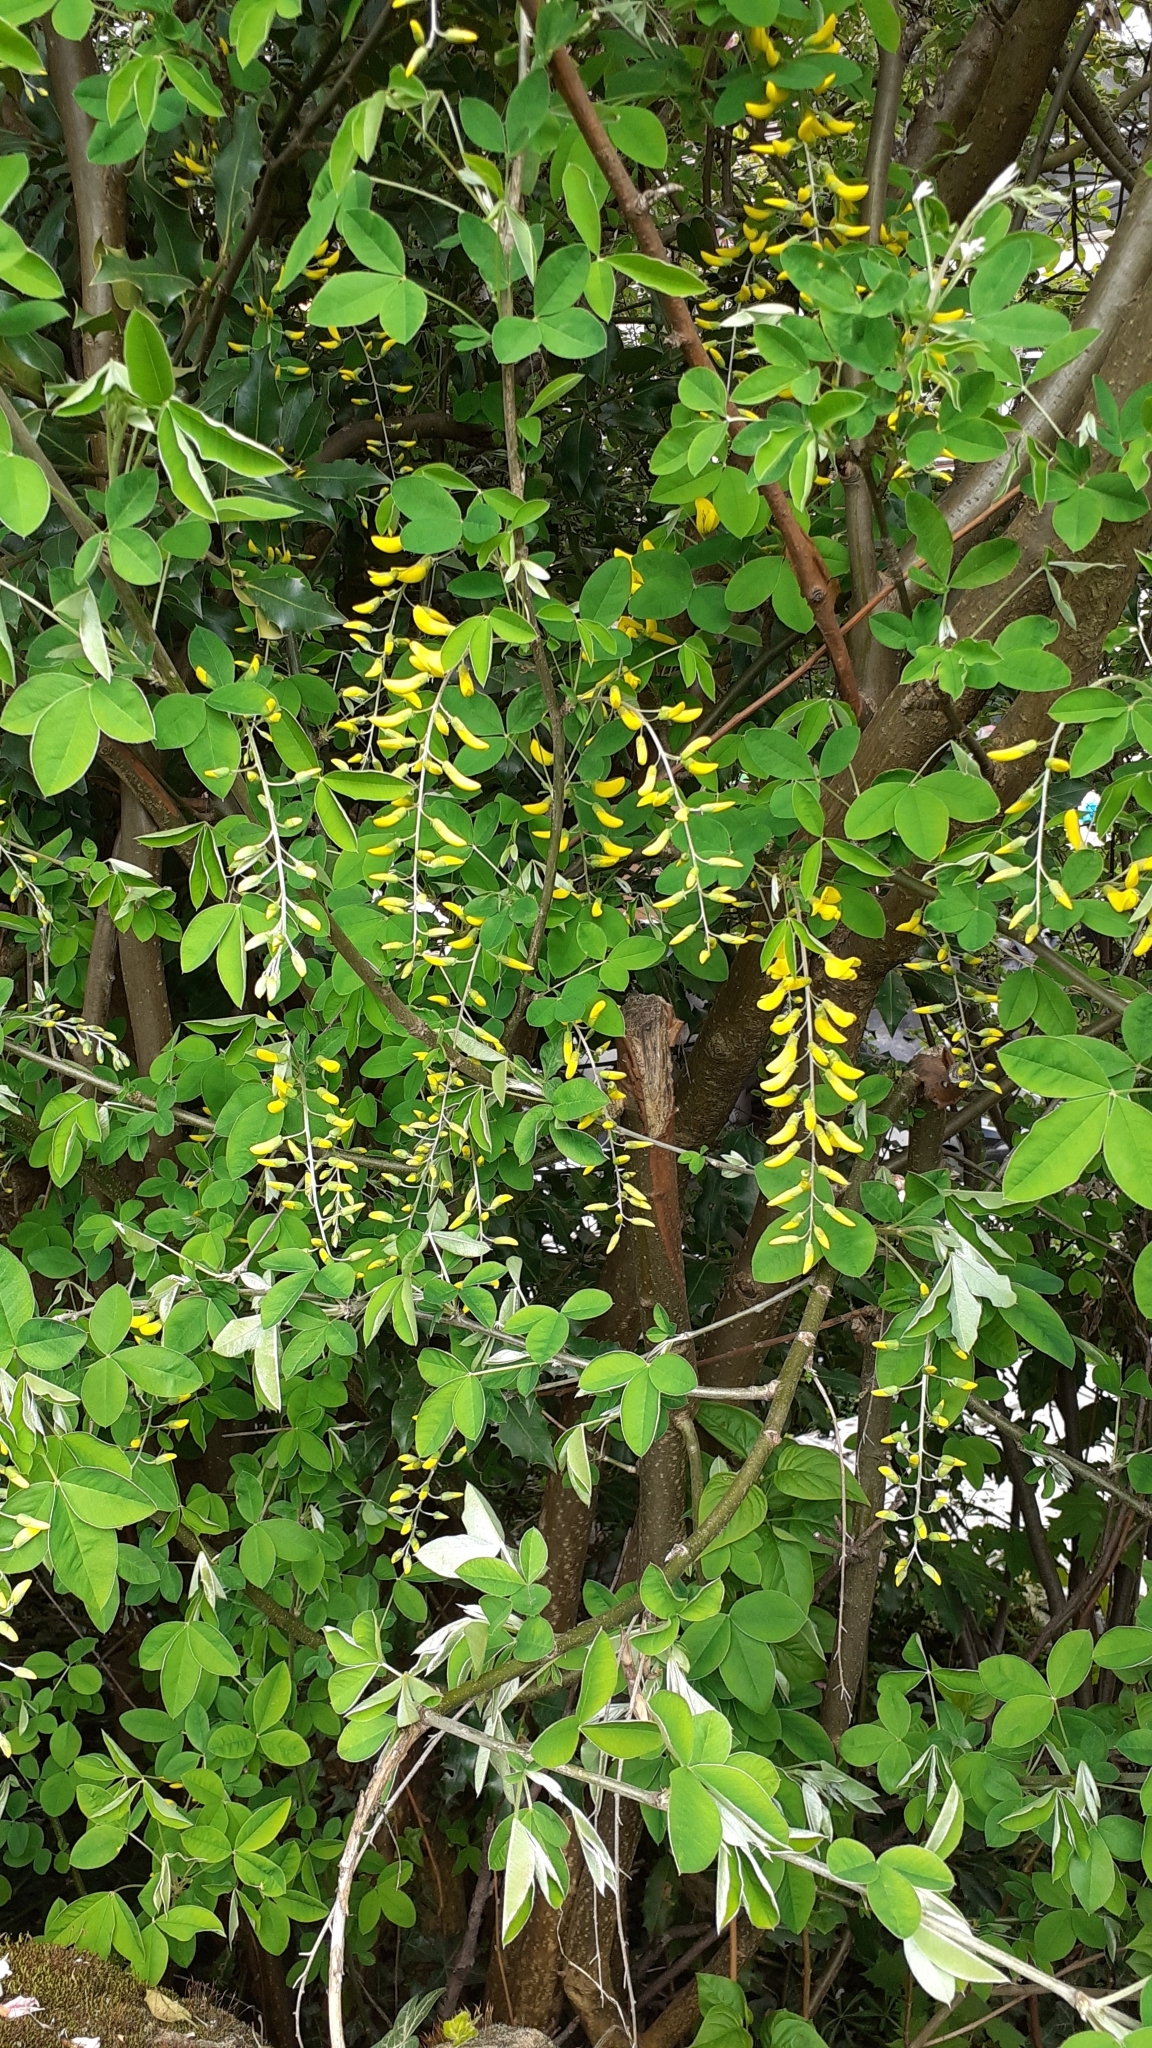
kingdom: Plantae
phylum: Tracheophyta
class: Magnoliopsida
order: Fabales
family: Fabaceae
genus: Laburnum
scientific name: Laburnum anagyroides
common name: Laburnum
